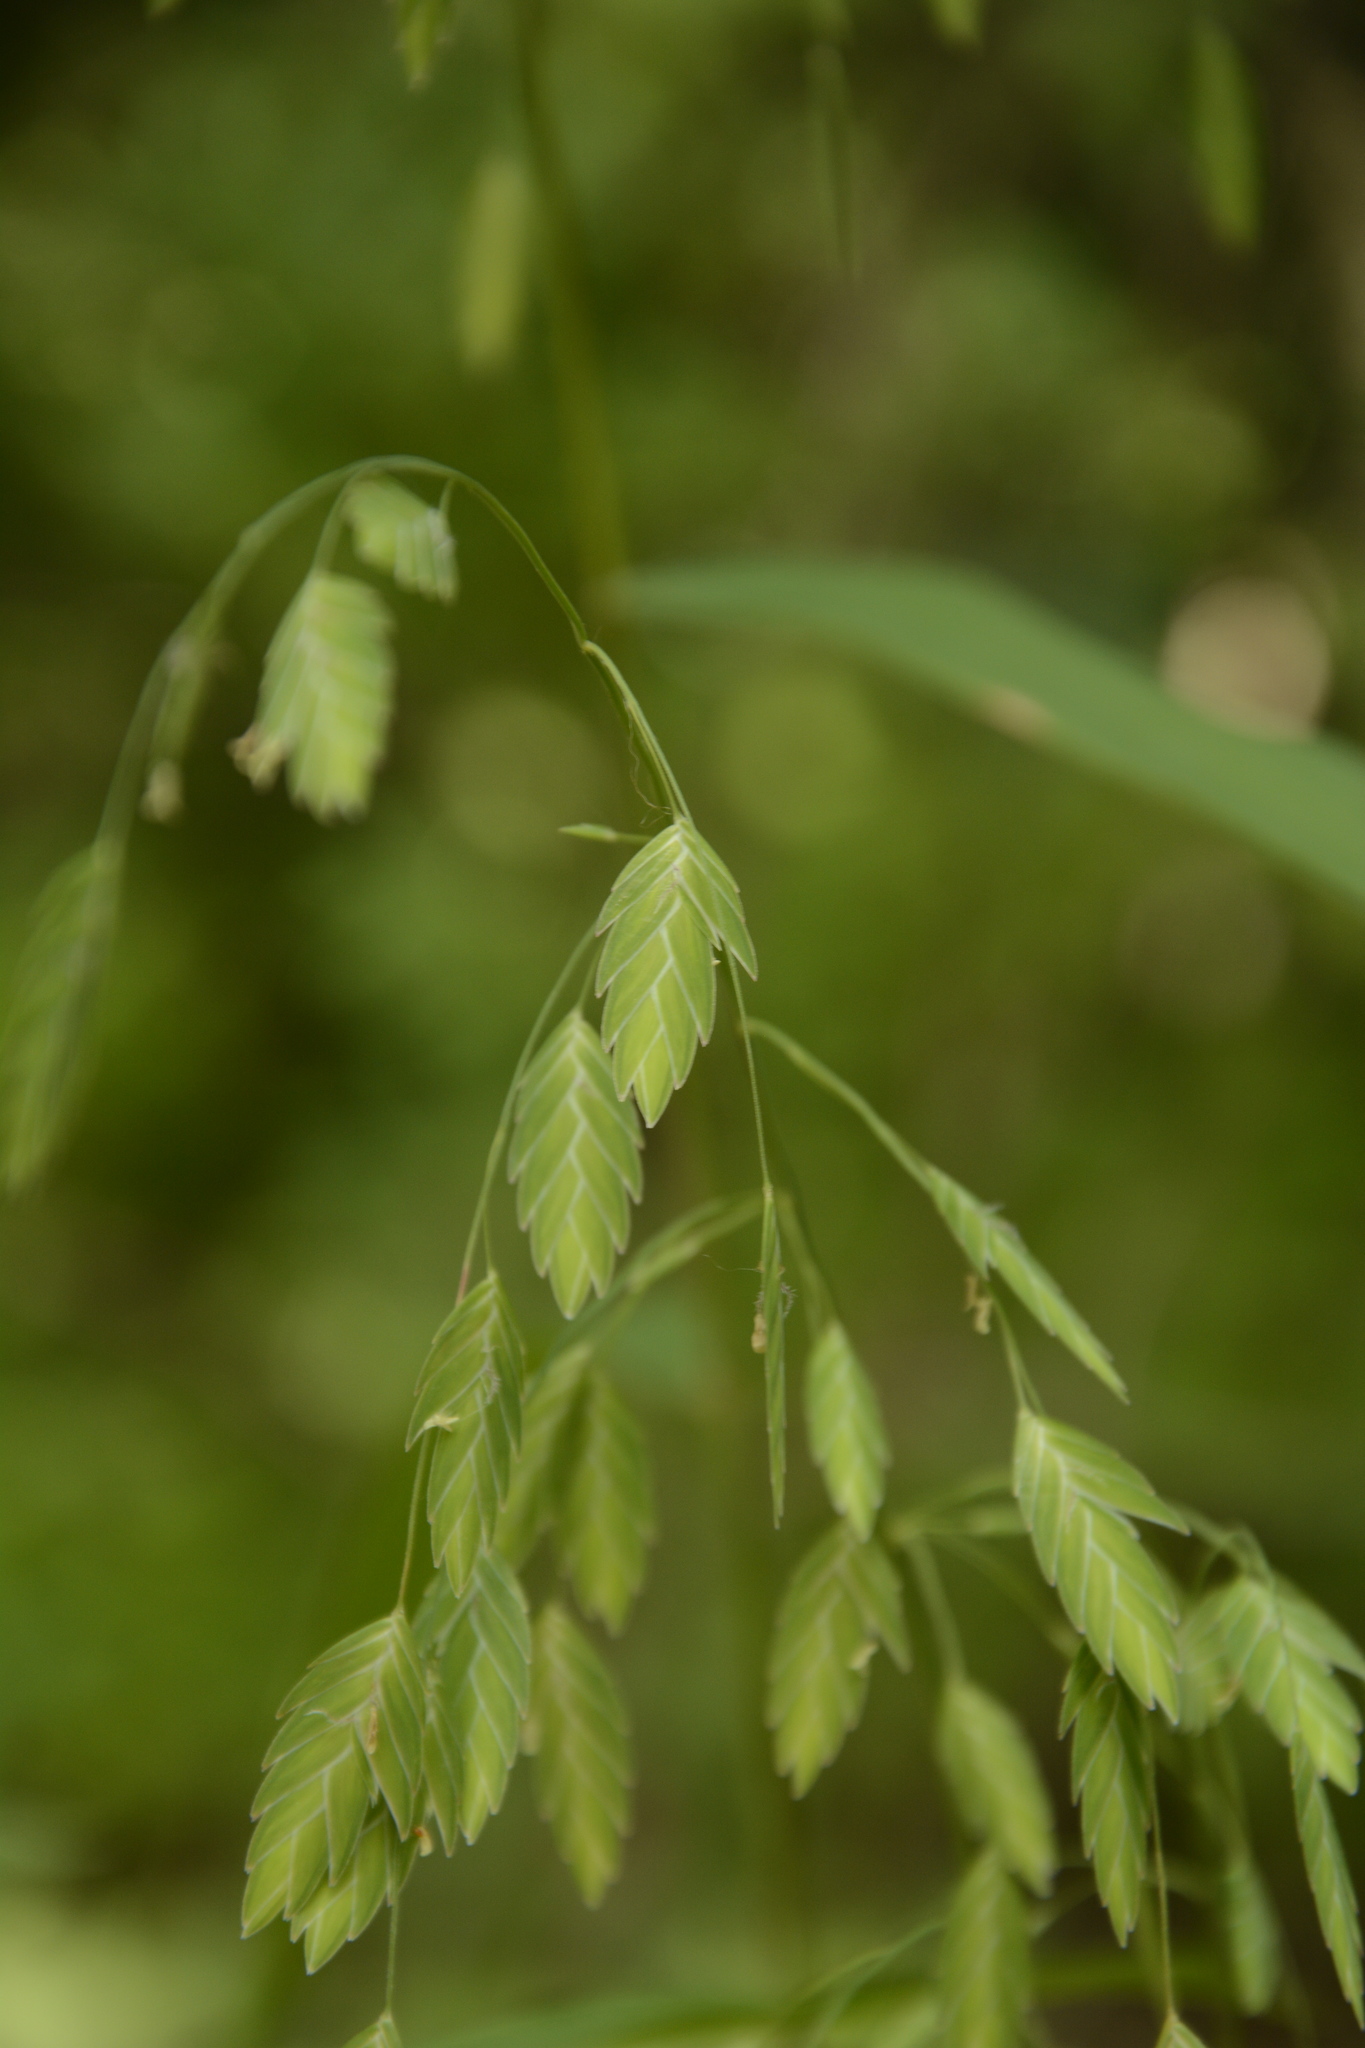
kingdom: Plantae
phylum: Tracheophyta
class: Liliopsida
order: Poales
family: Poaceae
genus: Chasmanthium
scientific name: Chasmanthium latifolium
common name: Broad-leaved chasmanthium
